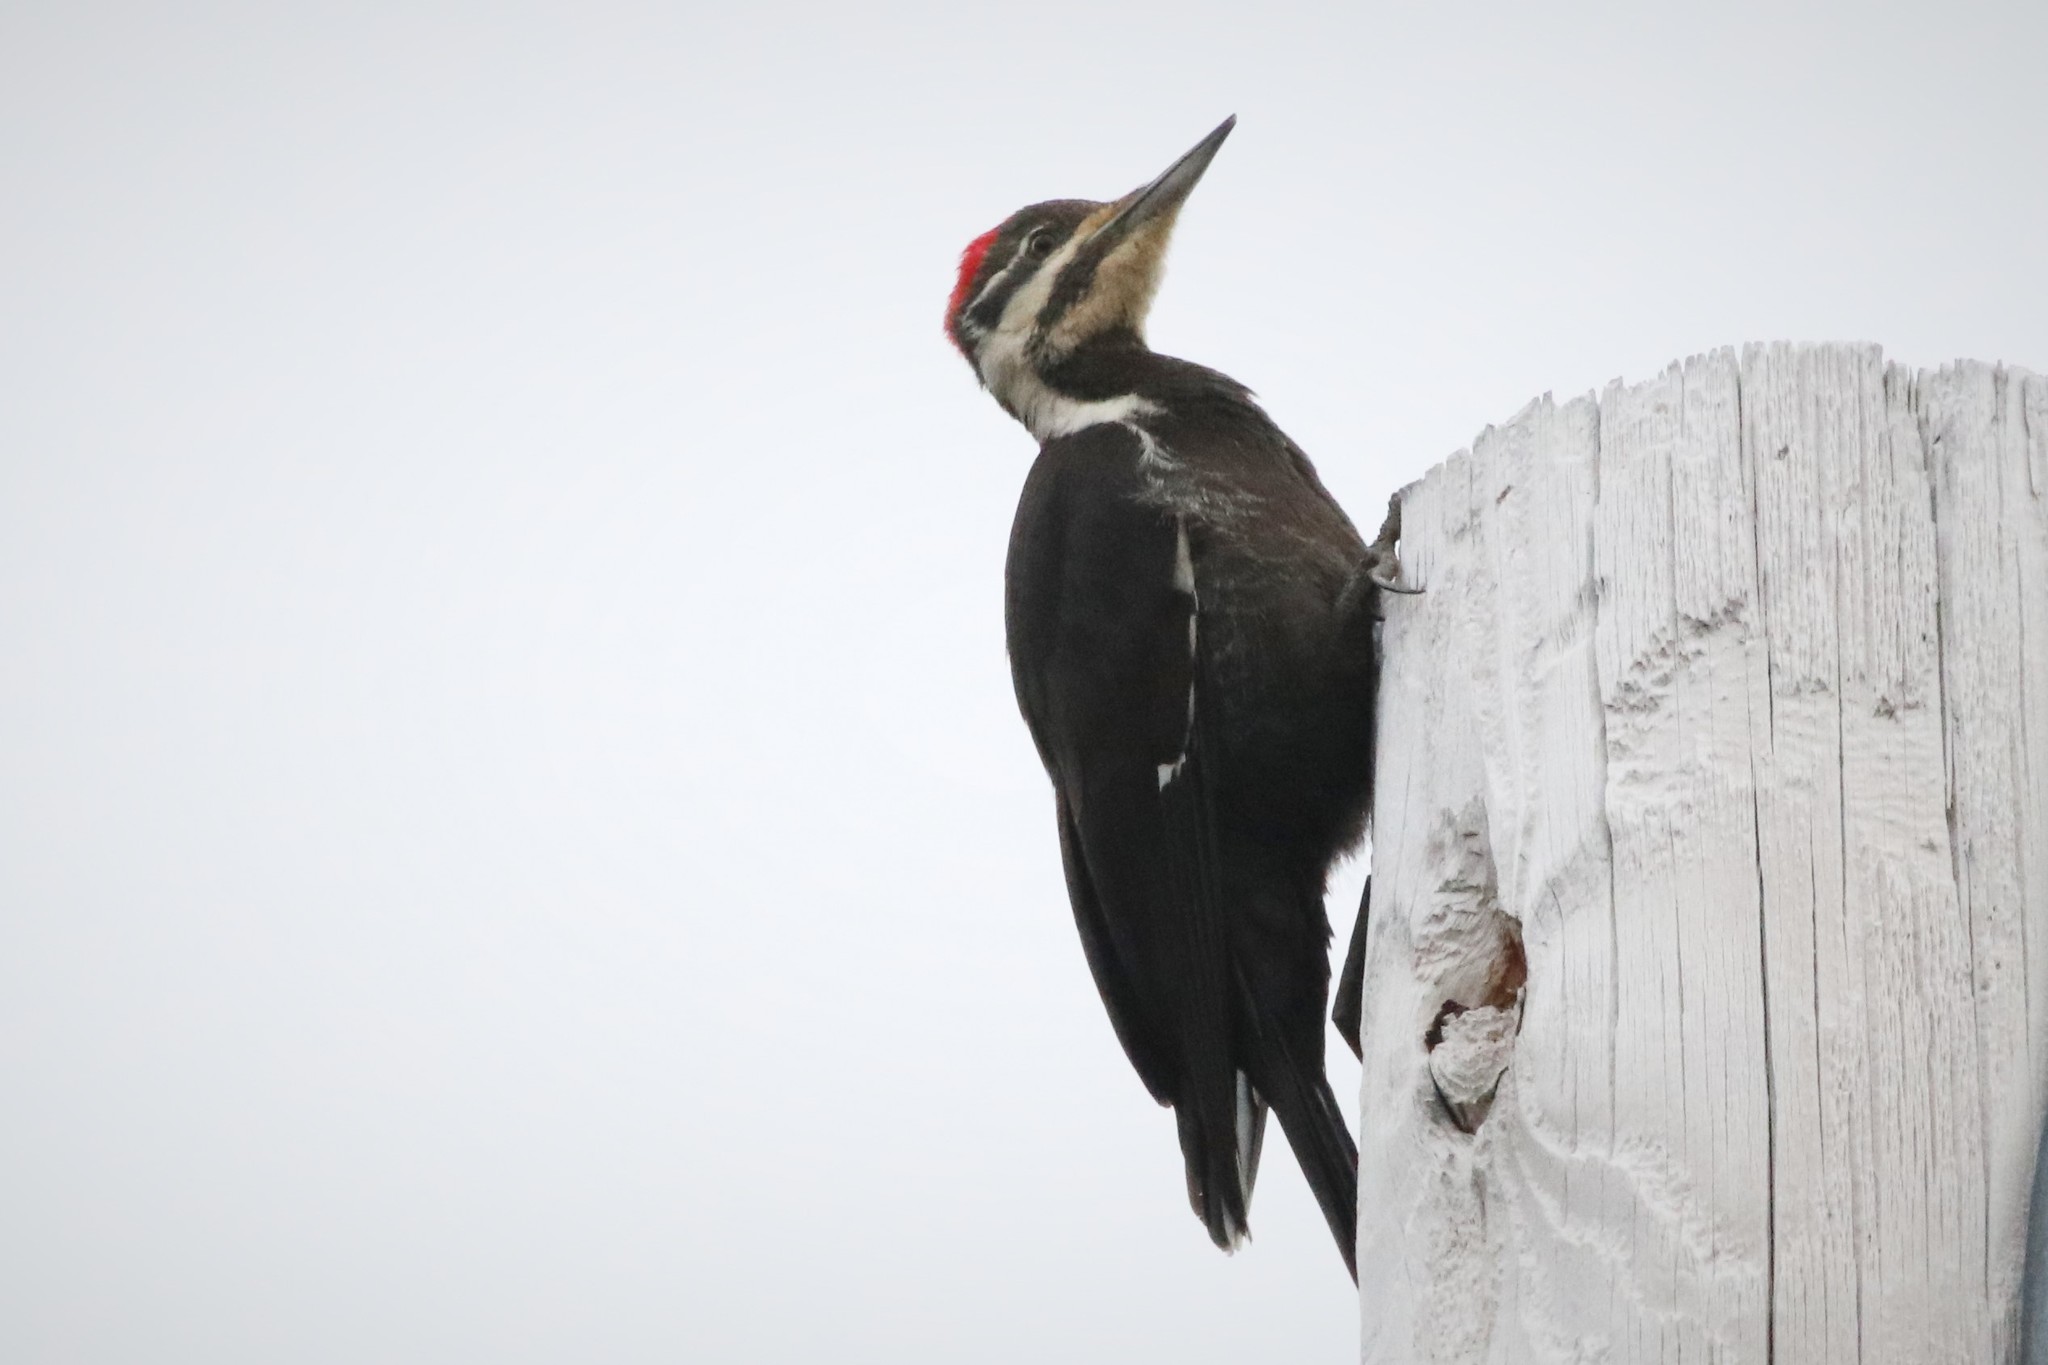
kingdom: Animalia
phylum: Chordata
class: Aves
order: Piciformes
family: Picidae
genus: Dryocopus
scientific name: Dryocopus pileatus
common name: Pileated woodpecker
